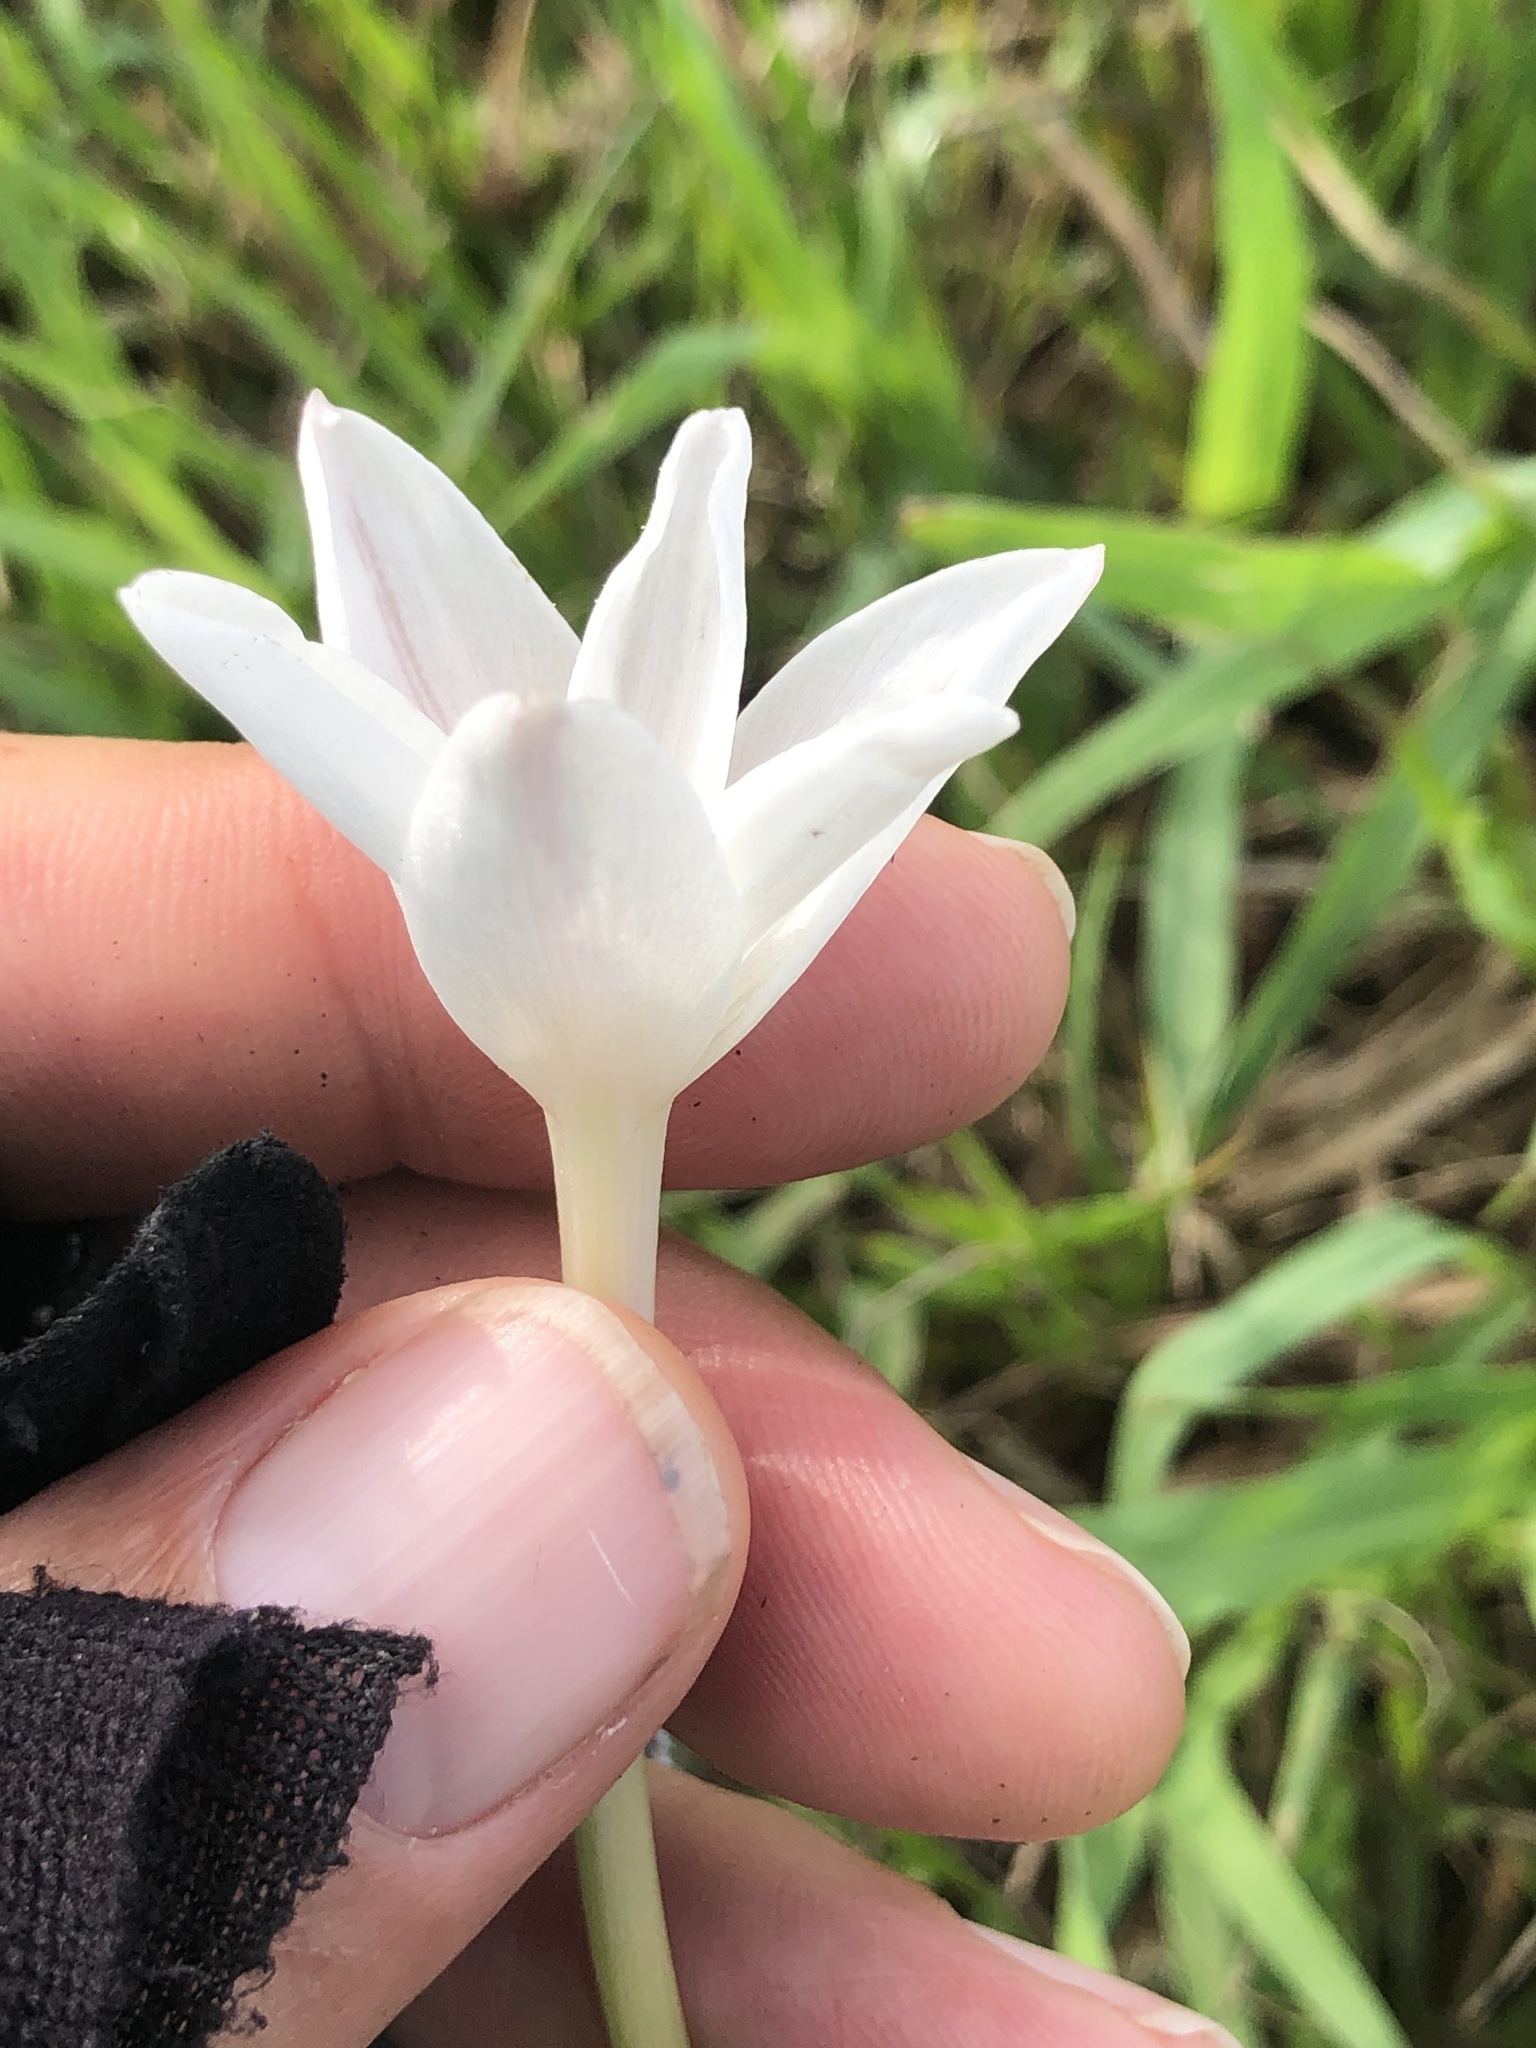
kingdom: Plantae
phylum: Tracheophyta
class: Liliopsida
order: Asparagales
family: Amaryllidaceae
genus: Zephyranthes
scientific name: Zephyranthes chlorosolen
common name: Evening rain-lily
